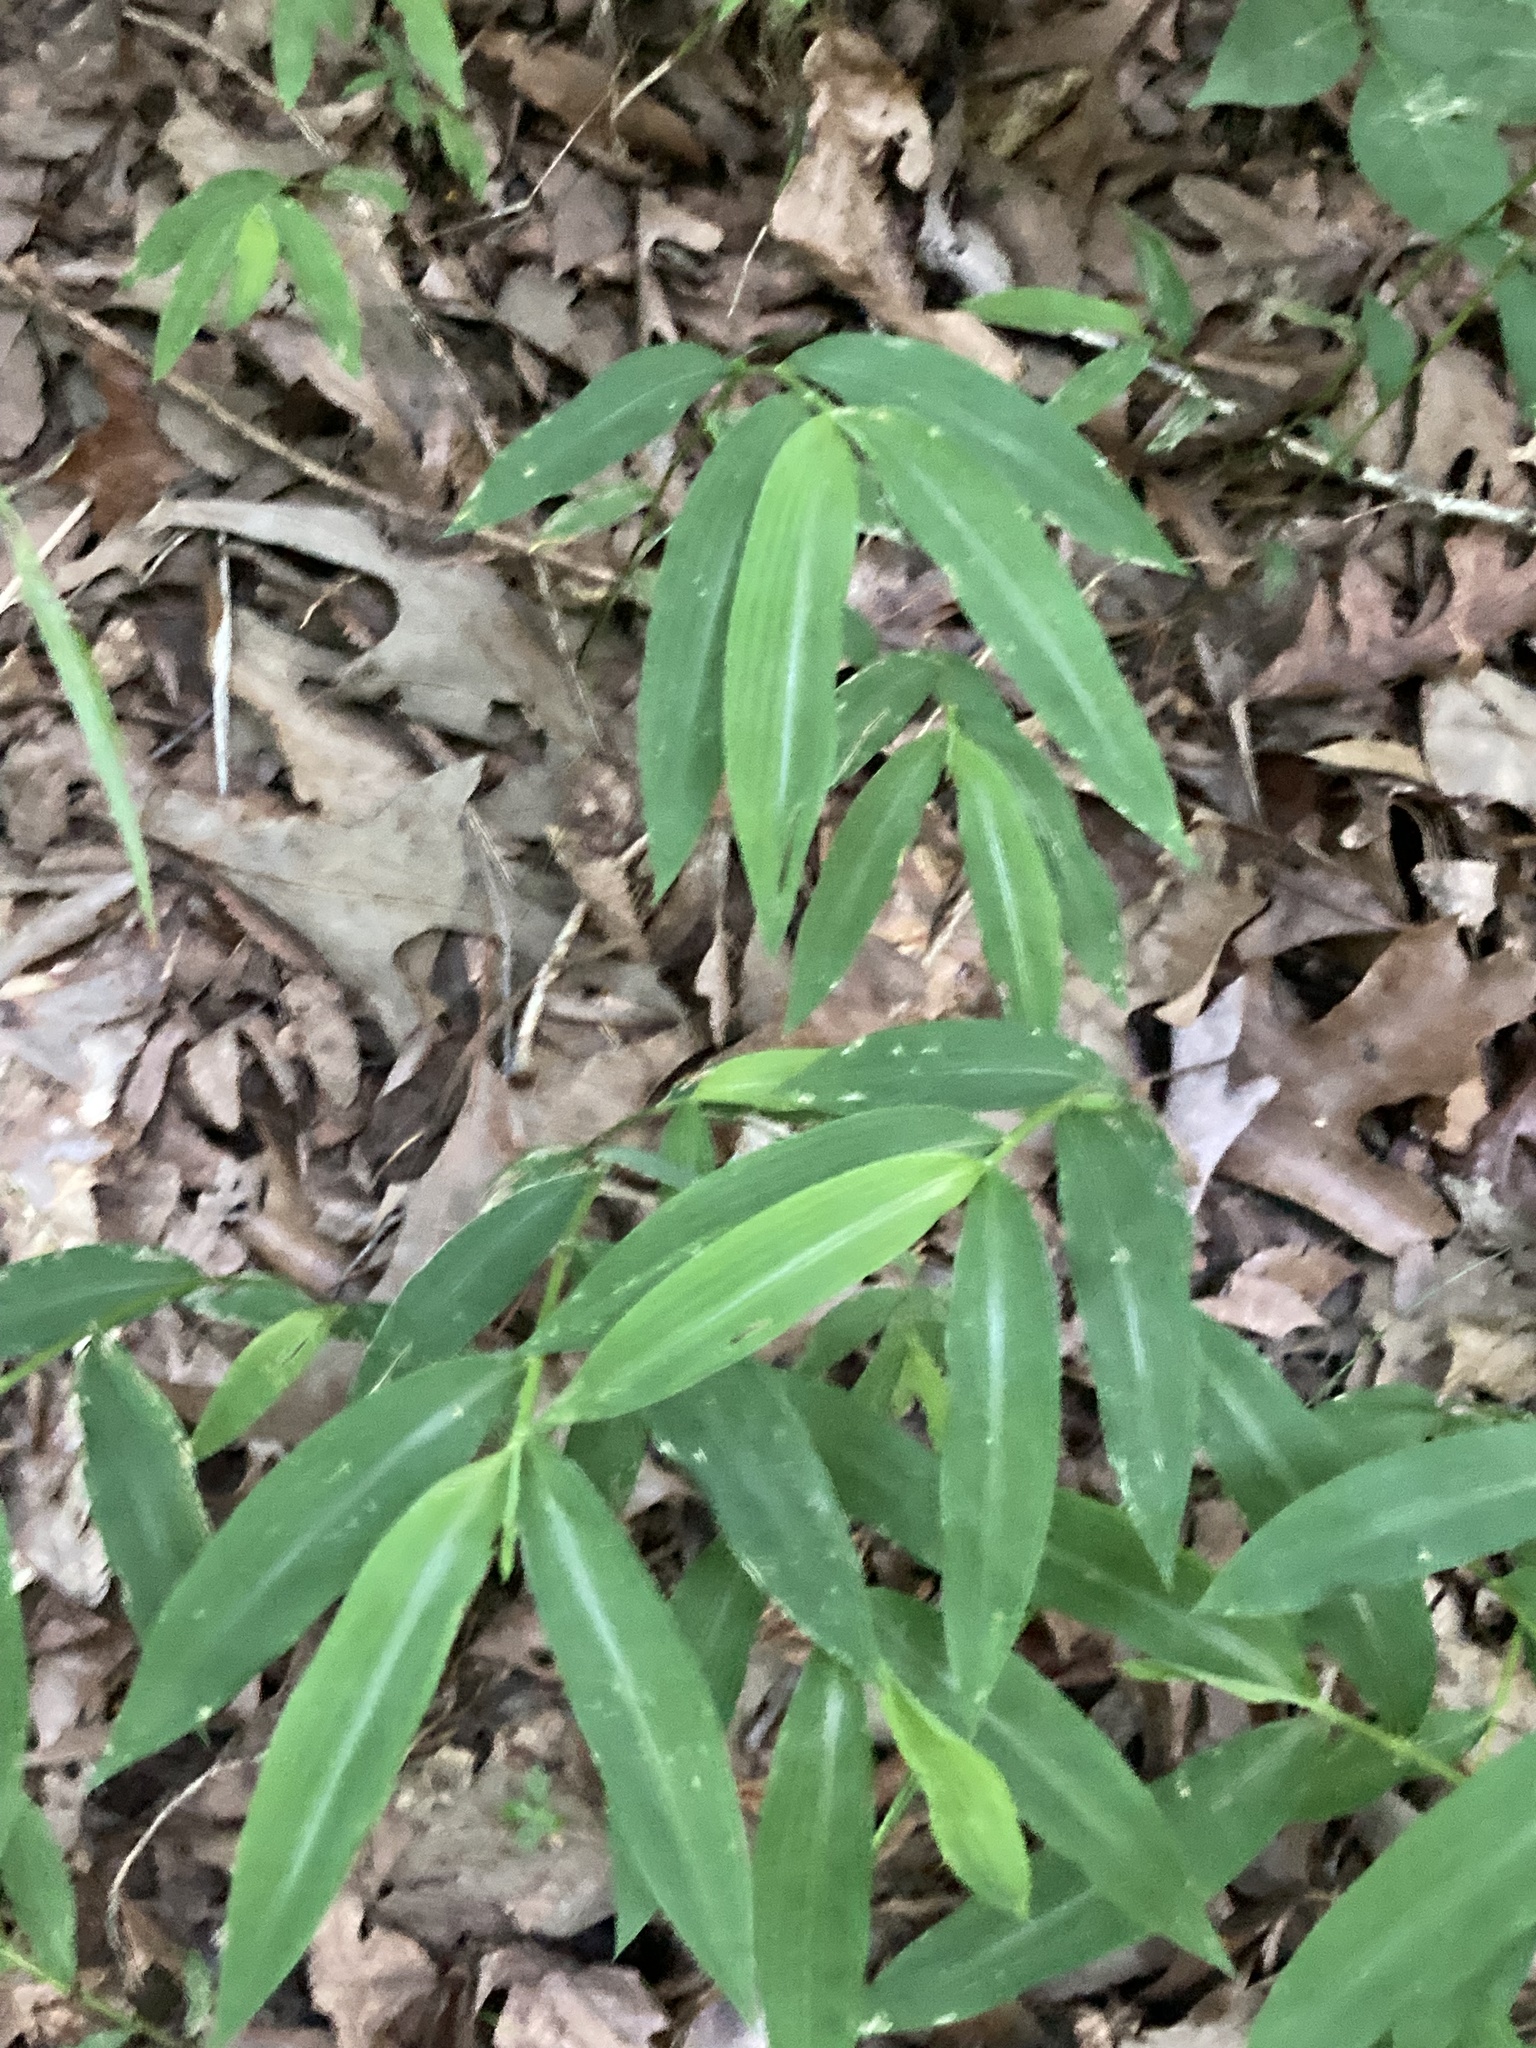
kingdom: Plantae
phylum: Tracheophyta
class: Liliopsida
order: Poales
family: Poaceae
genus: Microstegium
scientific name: Microstegium vimineum
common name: Japanese stiltgrass
